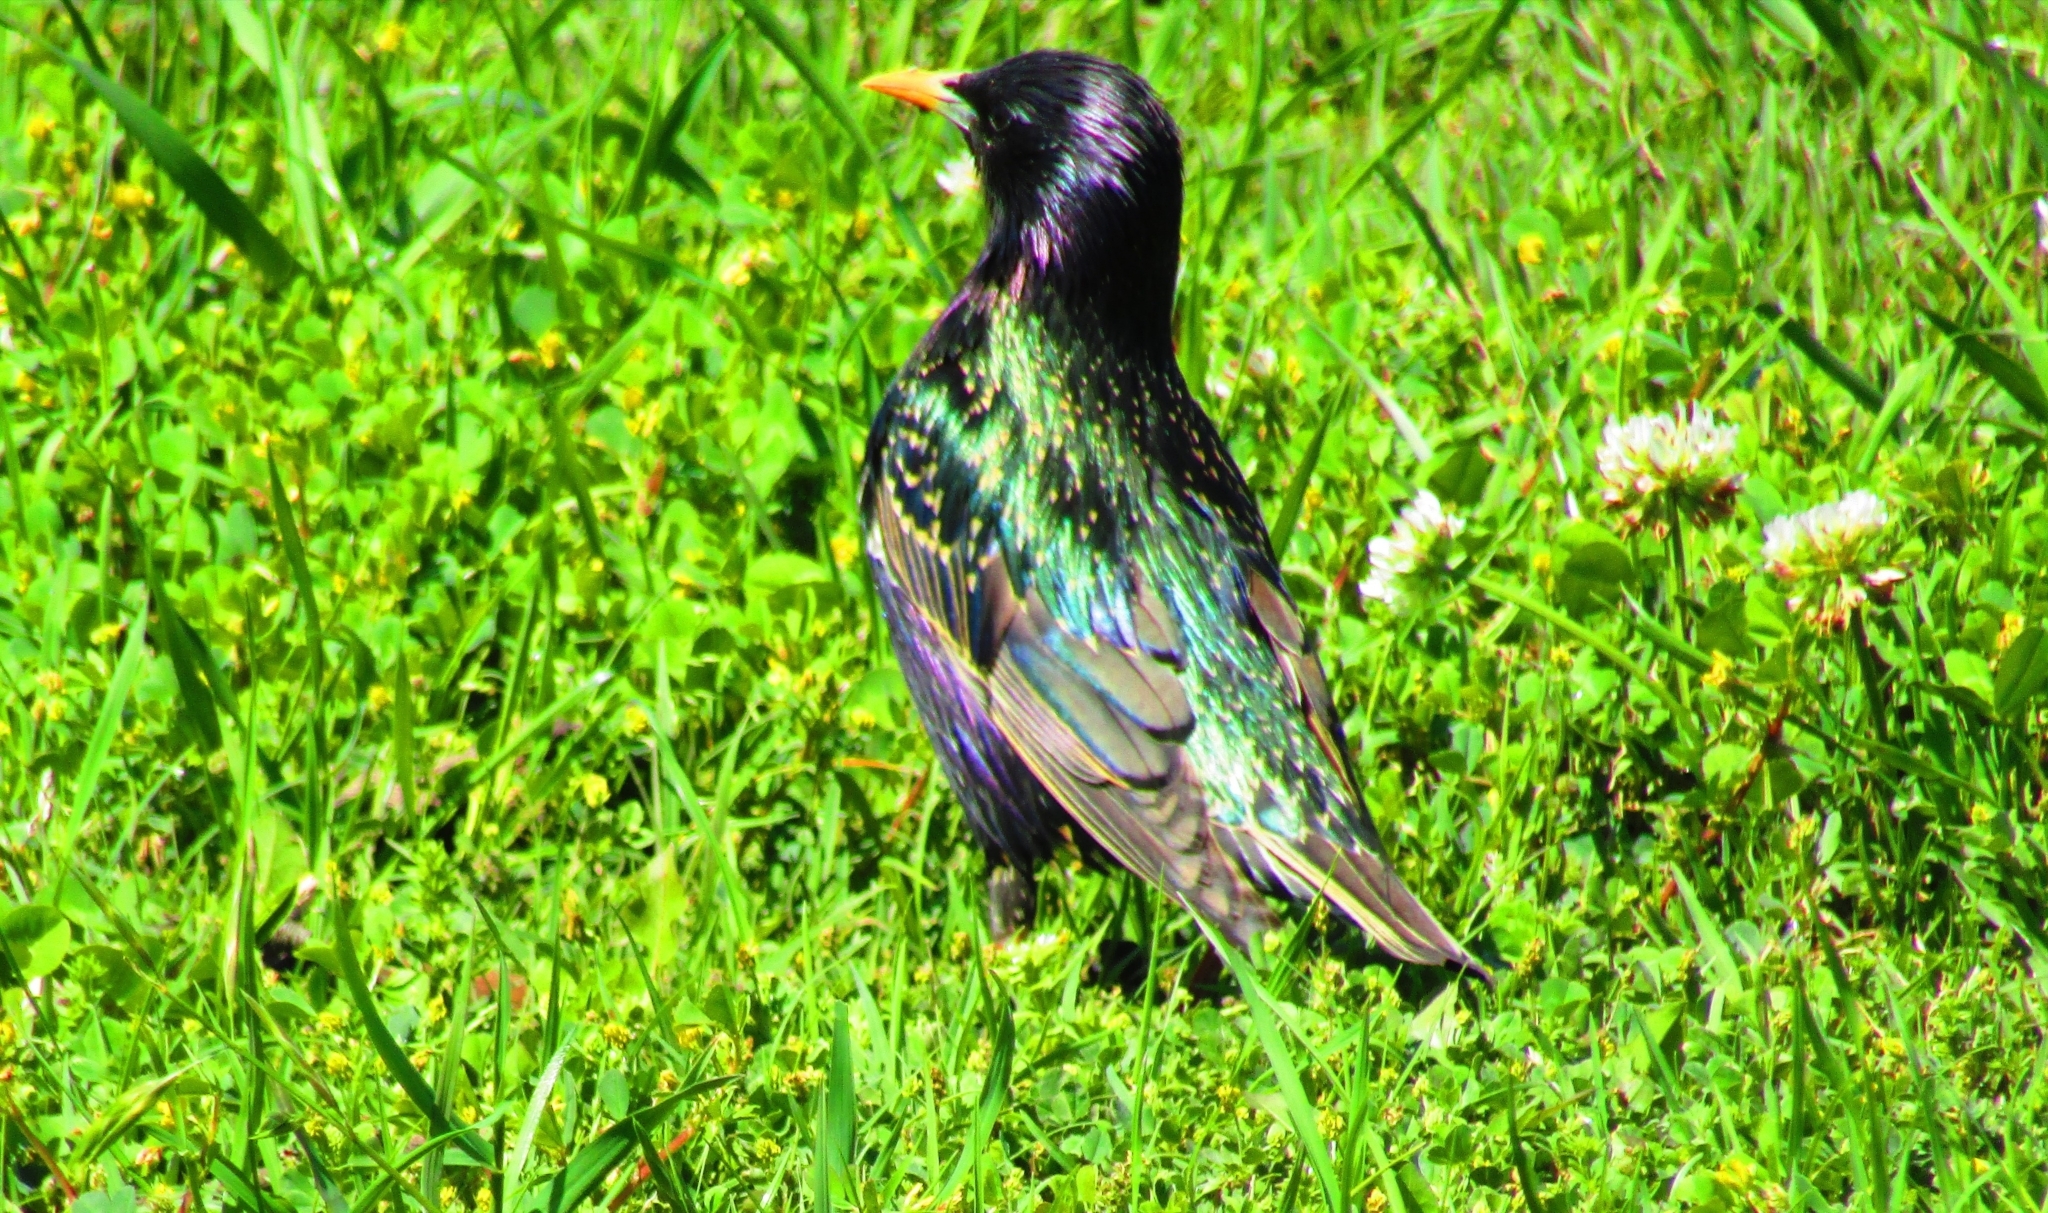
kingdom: Animalia
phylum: Chordata
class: Aves
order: Passeriformes
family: Sturnidae
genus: Sturnus
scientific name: Sturnus vulgaris
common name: Common starling
